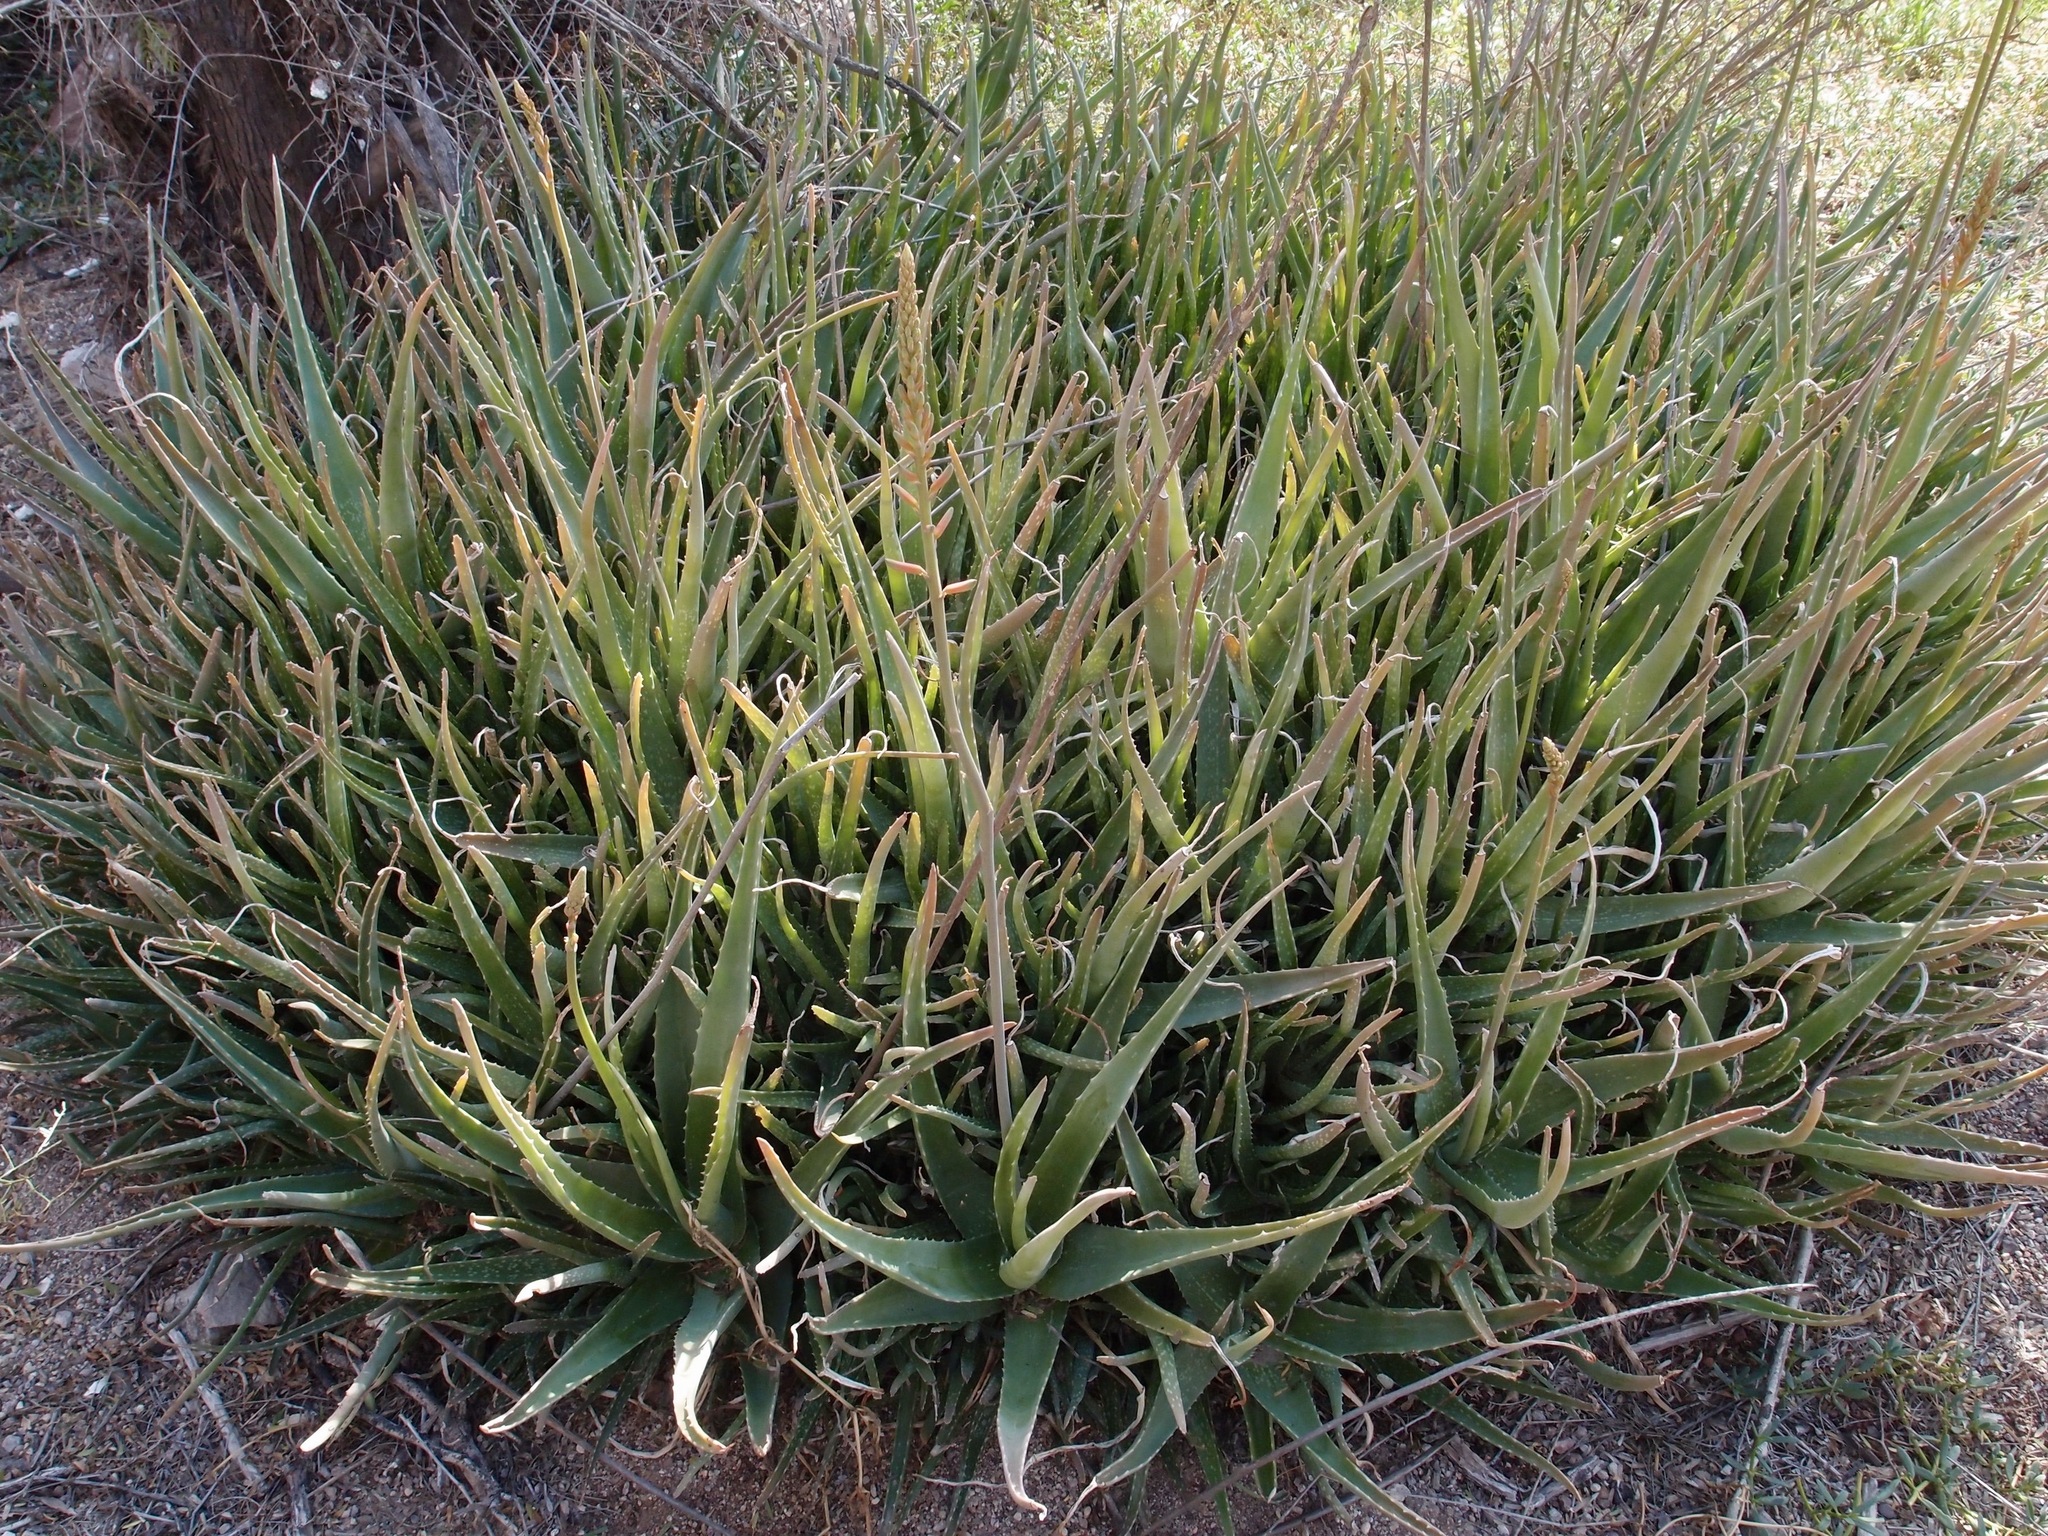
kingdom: Plantae
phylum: Tracheophyta
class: Liliopsida
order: Asparagales
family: Asphodelaceae
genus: Aloe
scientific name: Aloe vera
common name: Barbados aloe
